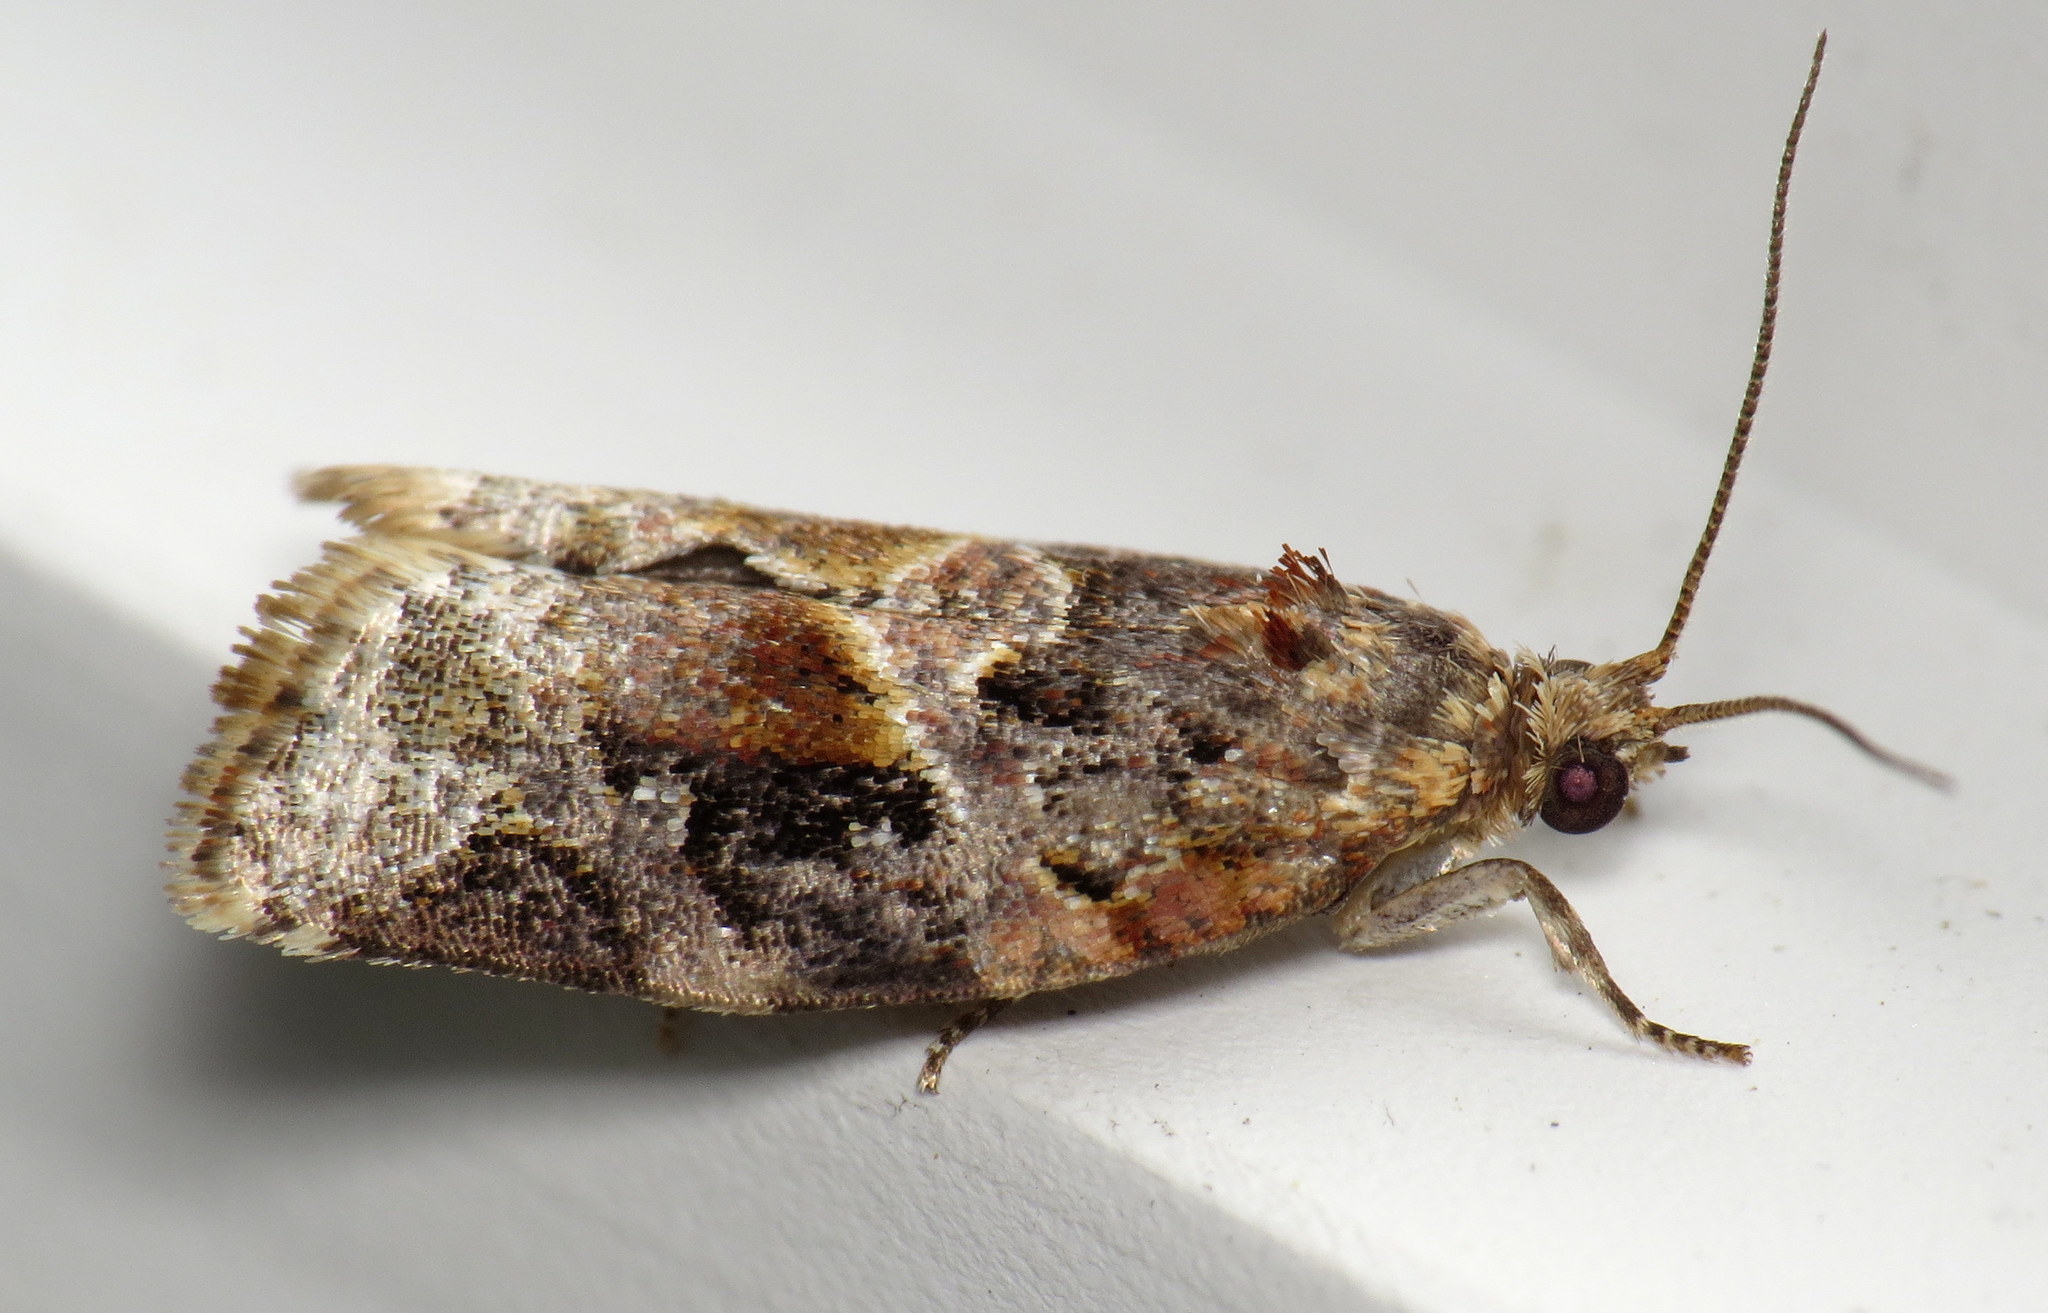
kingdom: Animalia
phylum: Arthropoda
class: Insecta
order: Lepidoptera
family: Tortricidae
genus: Argyrotaenia
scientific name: Argyrotaenia velutinana
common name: Red-banded leafroller moth
